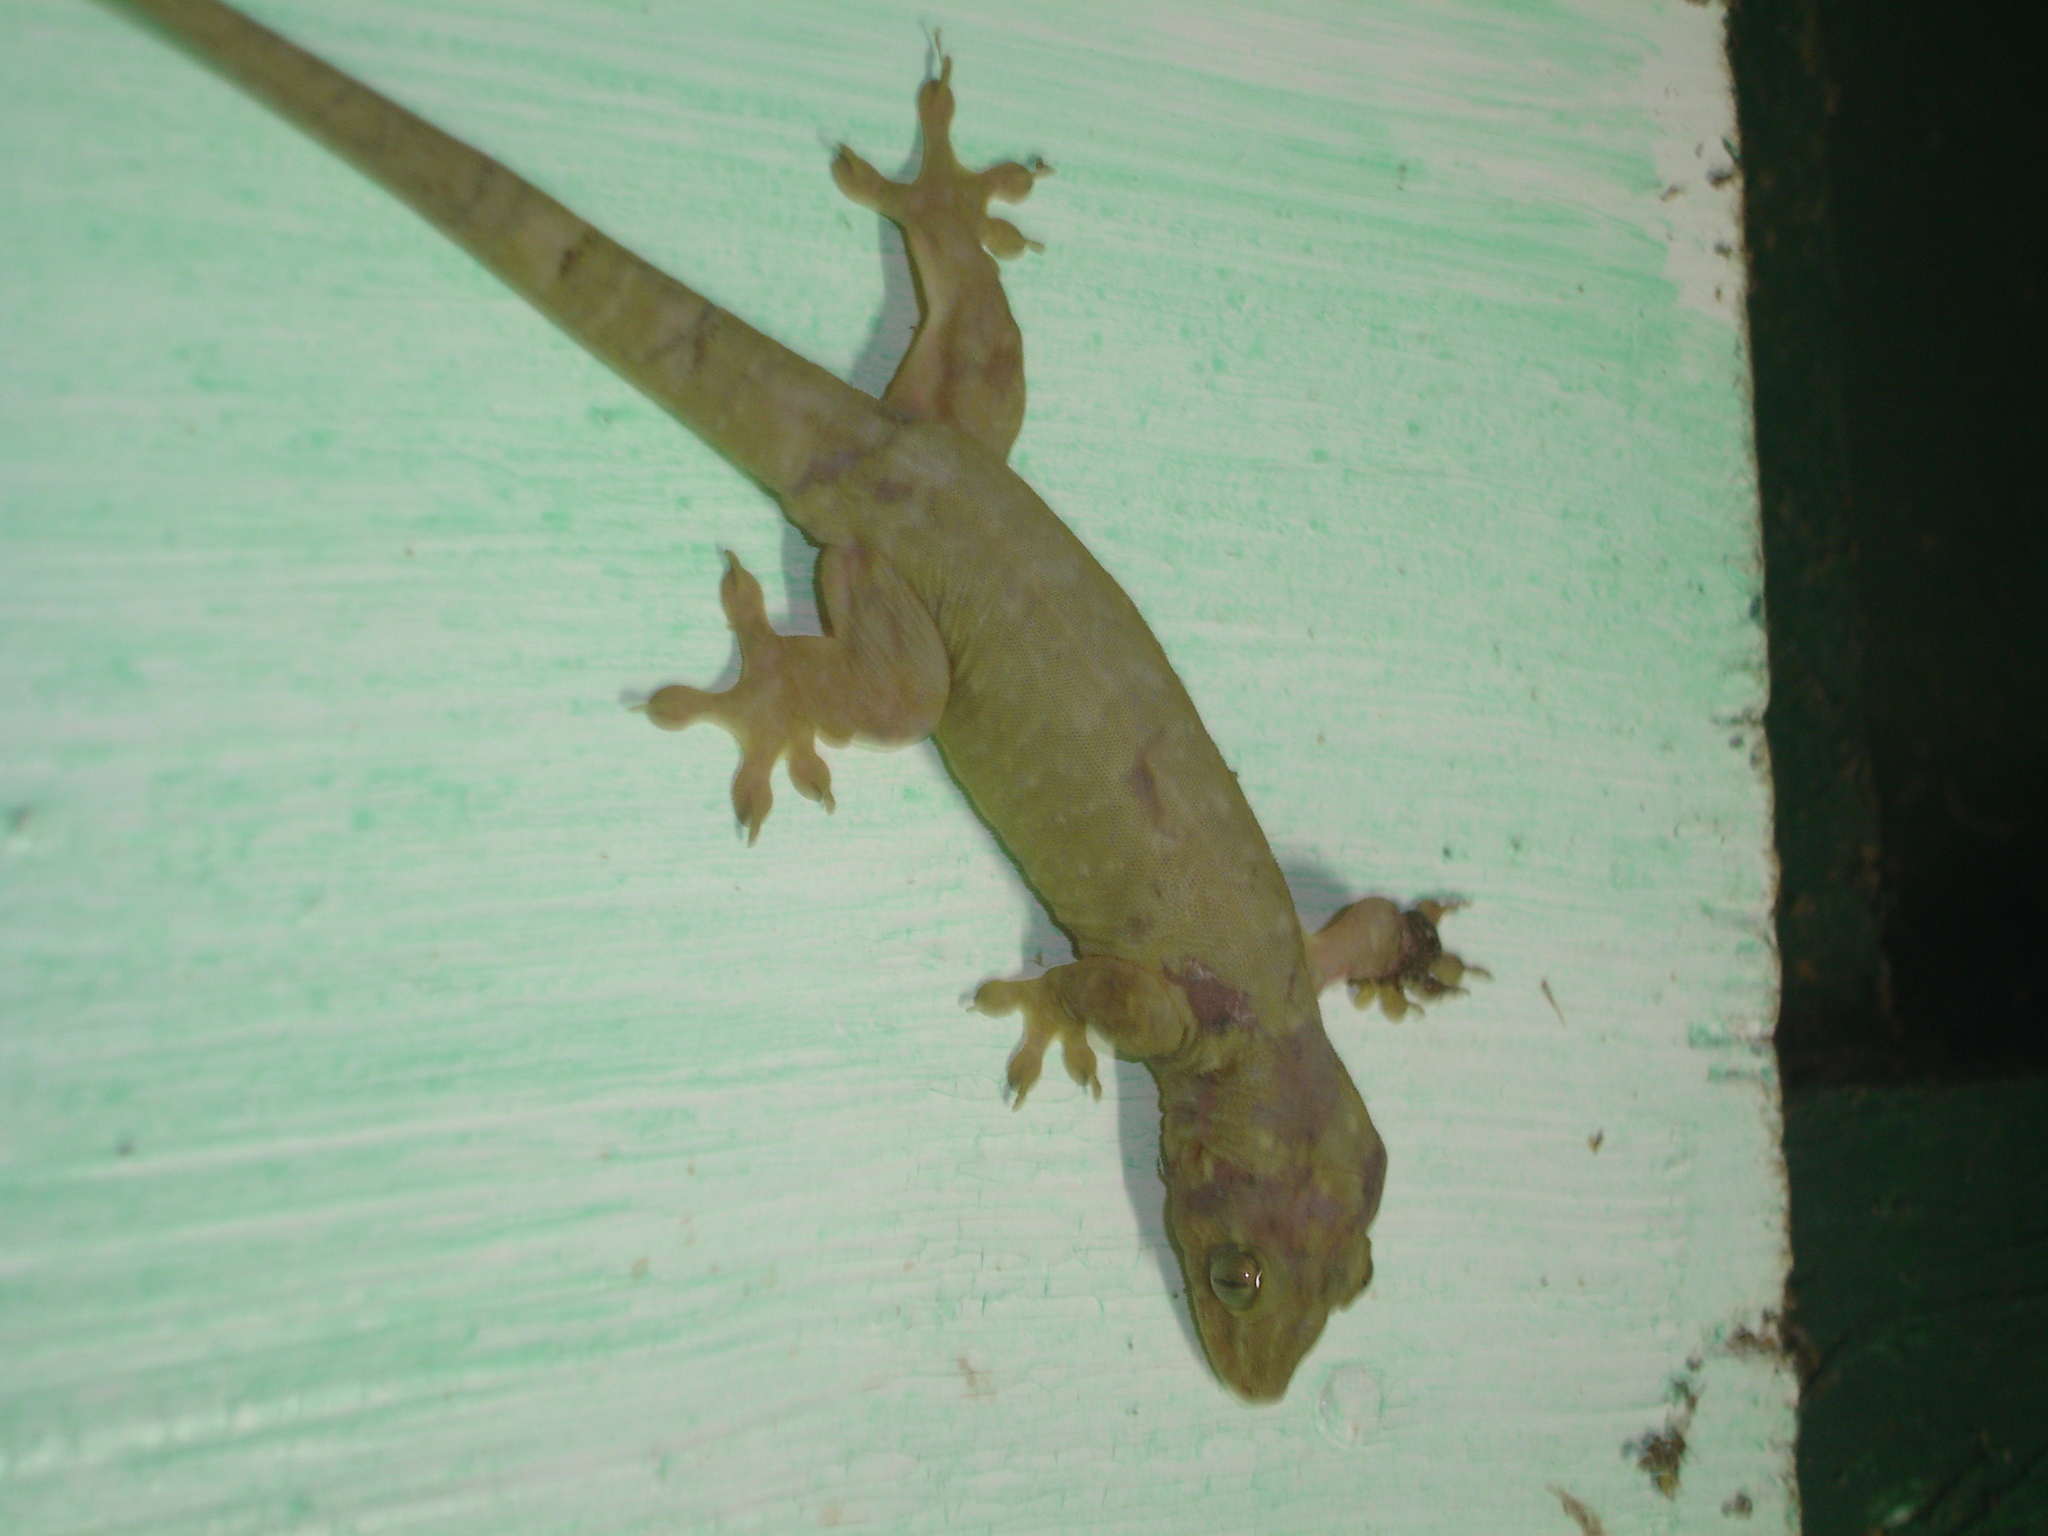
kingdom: Animalia
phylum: Chordata
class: Squamata
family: Gekkonidae
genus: Gehyra
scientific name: Gehyra oceanica
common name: Pacific dtella
